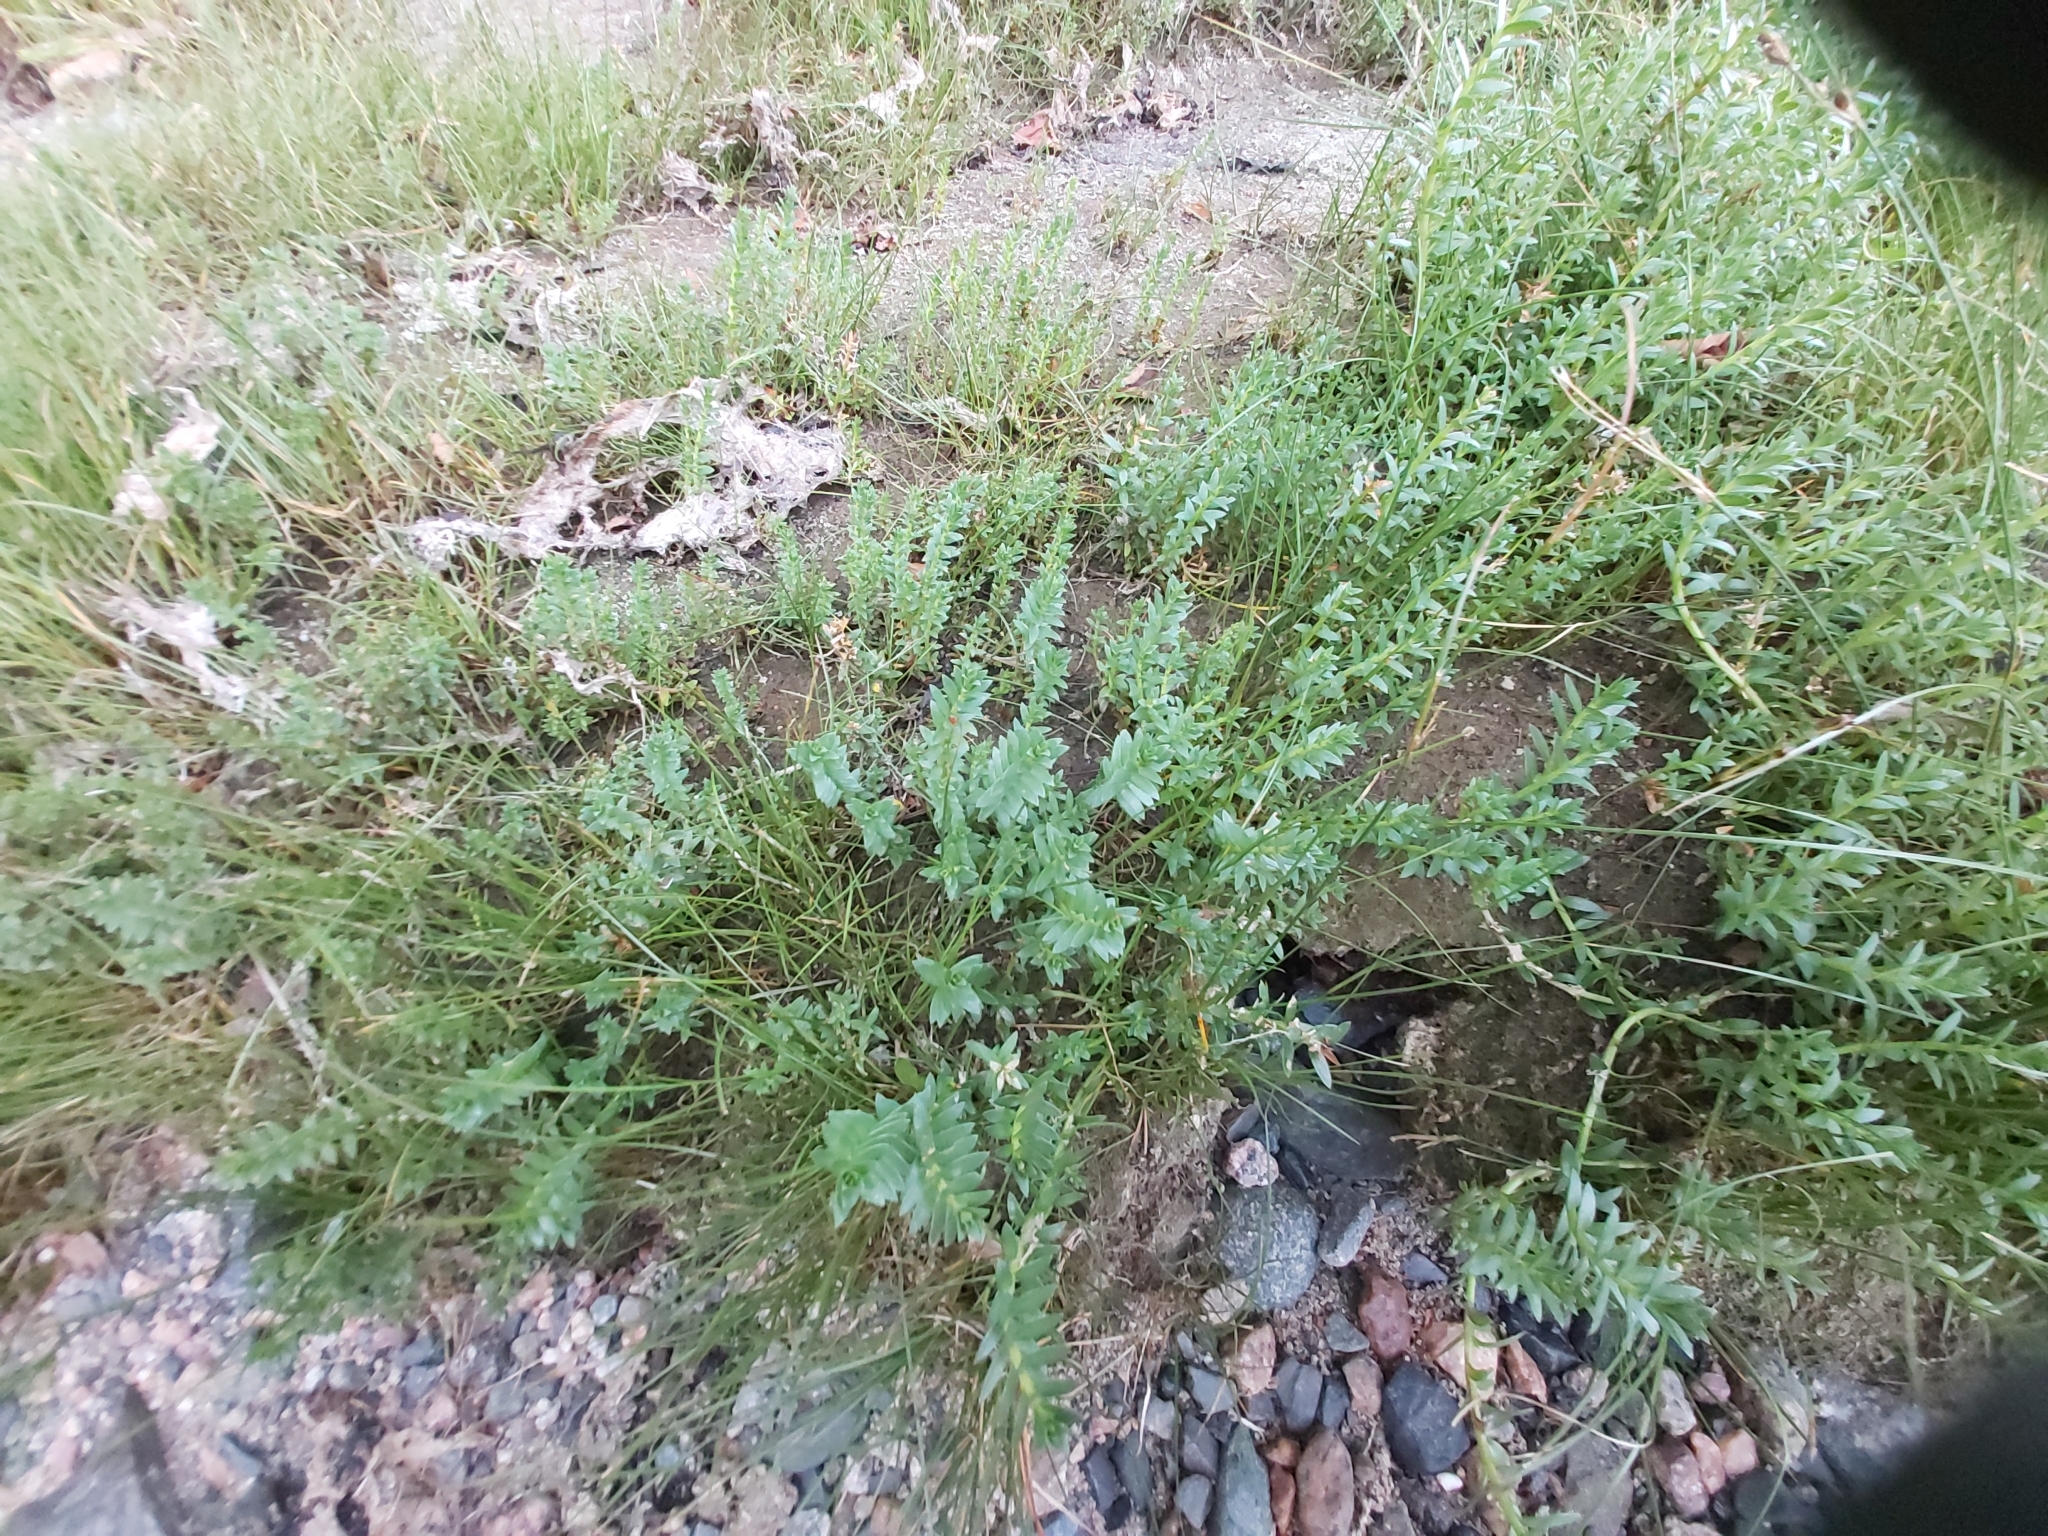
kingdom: Plantae
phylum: Tracheophyta
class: Magnoliopsida
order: Ericales
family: Primulaceae
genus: Lysimachia
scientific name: Lysimachia maritima
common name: Sea milkwort
